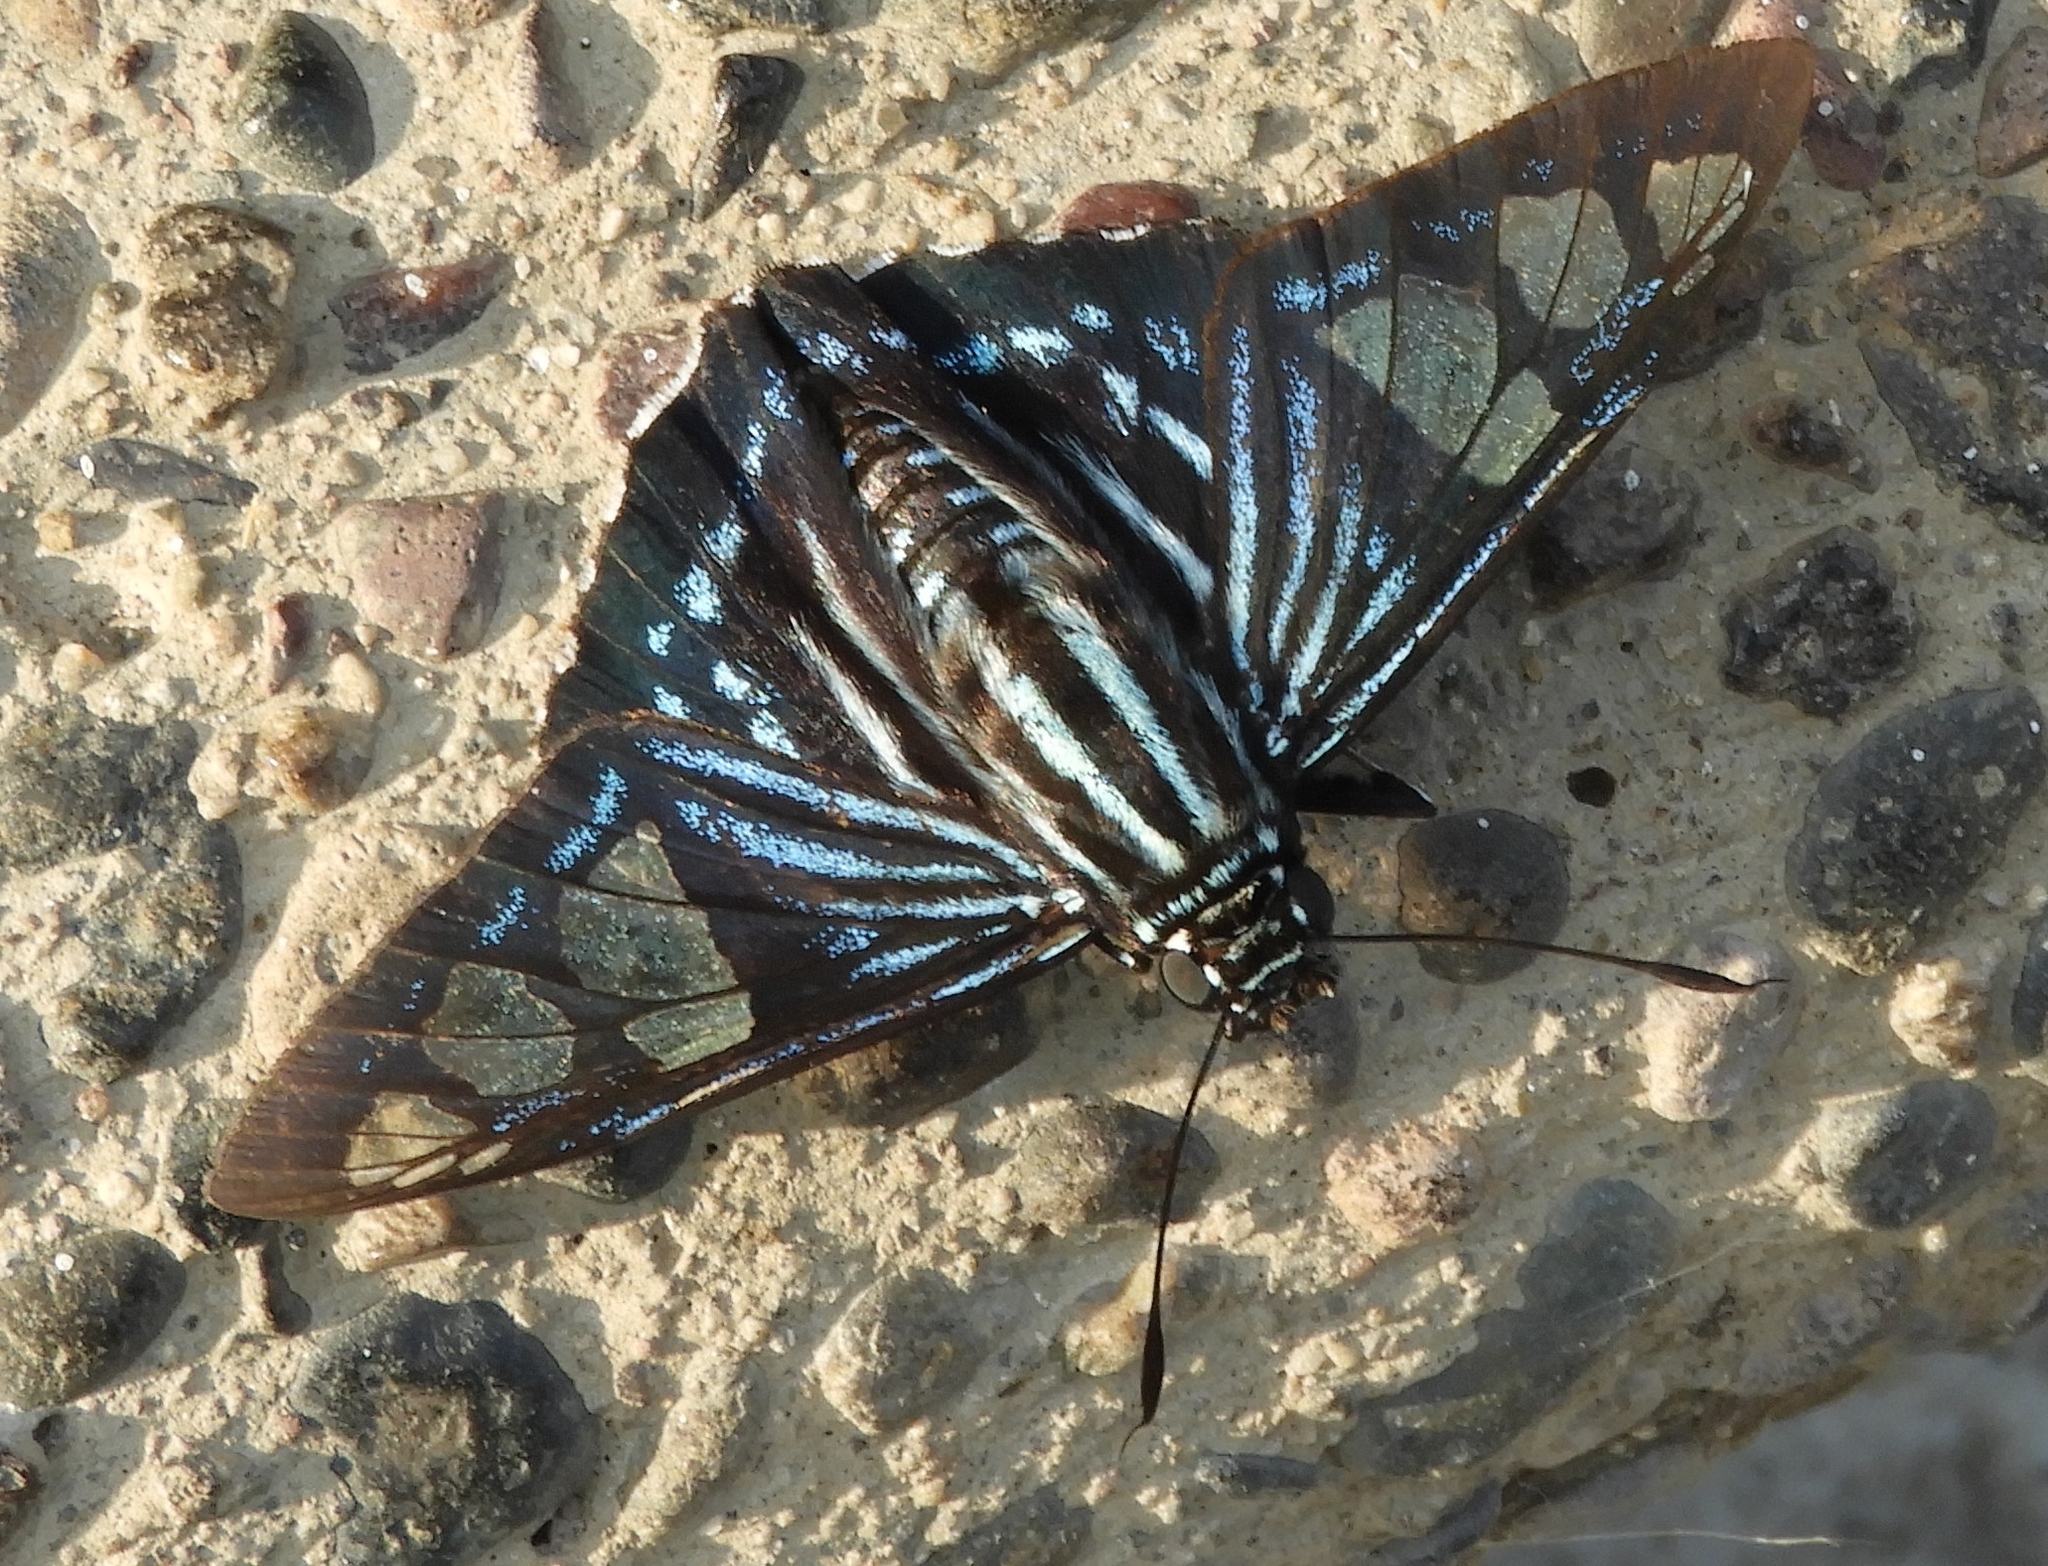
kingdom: Animalia
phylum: Arthropoda
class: Insecta
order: Lepidoptera
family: Hesperiidae
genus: Phocides
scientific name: Phocides pigmalion
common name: Mangrove skipper
